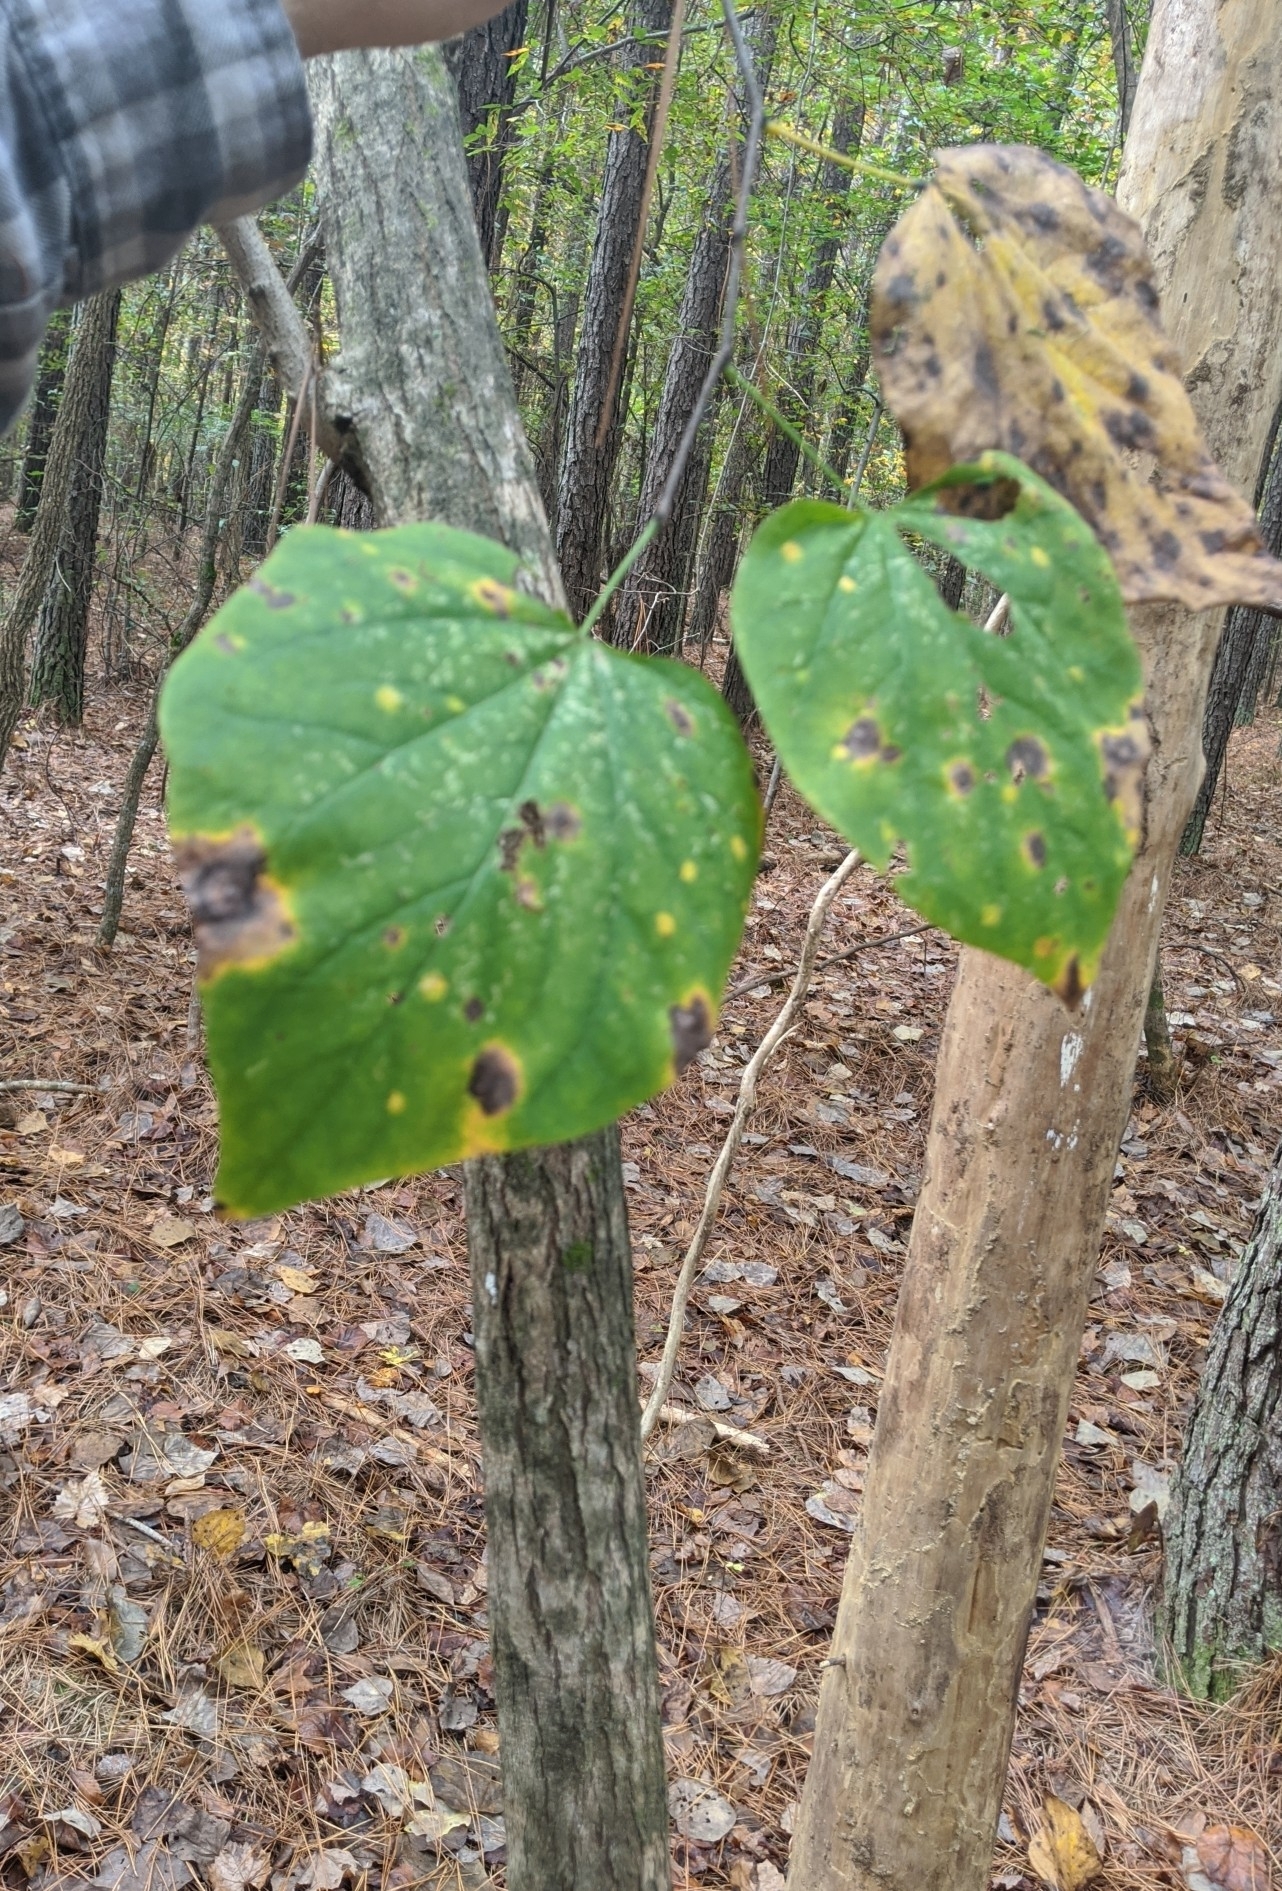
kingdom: Plantae
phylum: Tracheophyta
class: Magnoliopsida
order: Fabales
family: Fabaceae
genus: Cercis
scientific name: Cercis canadensis
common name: Eastern redbud
